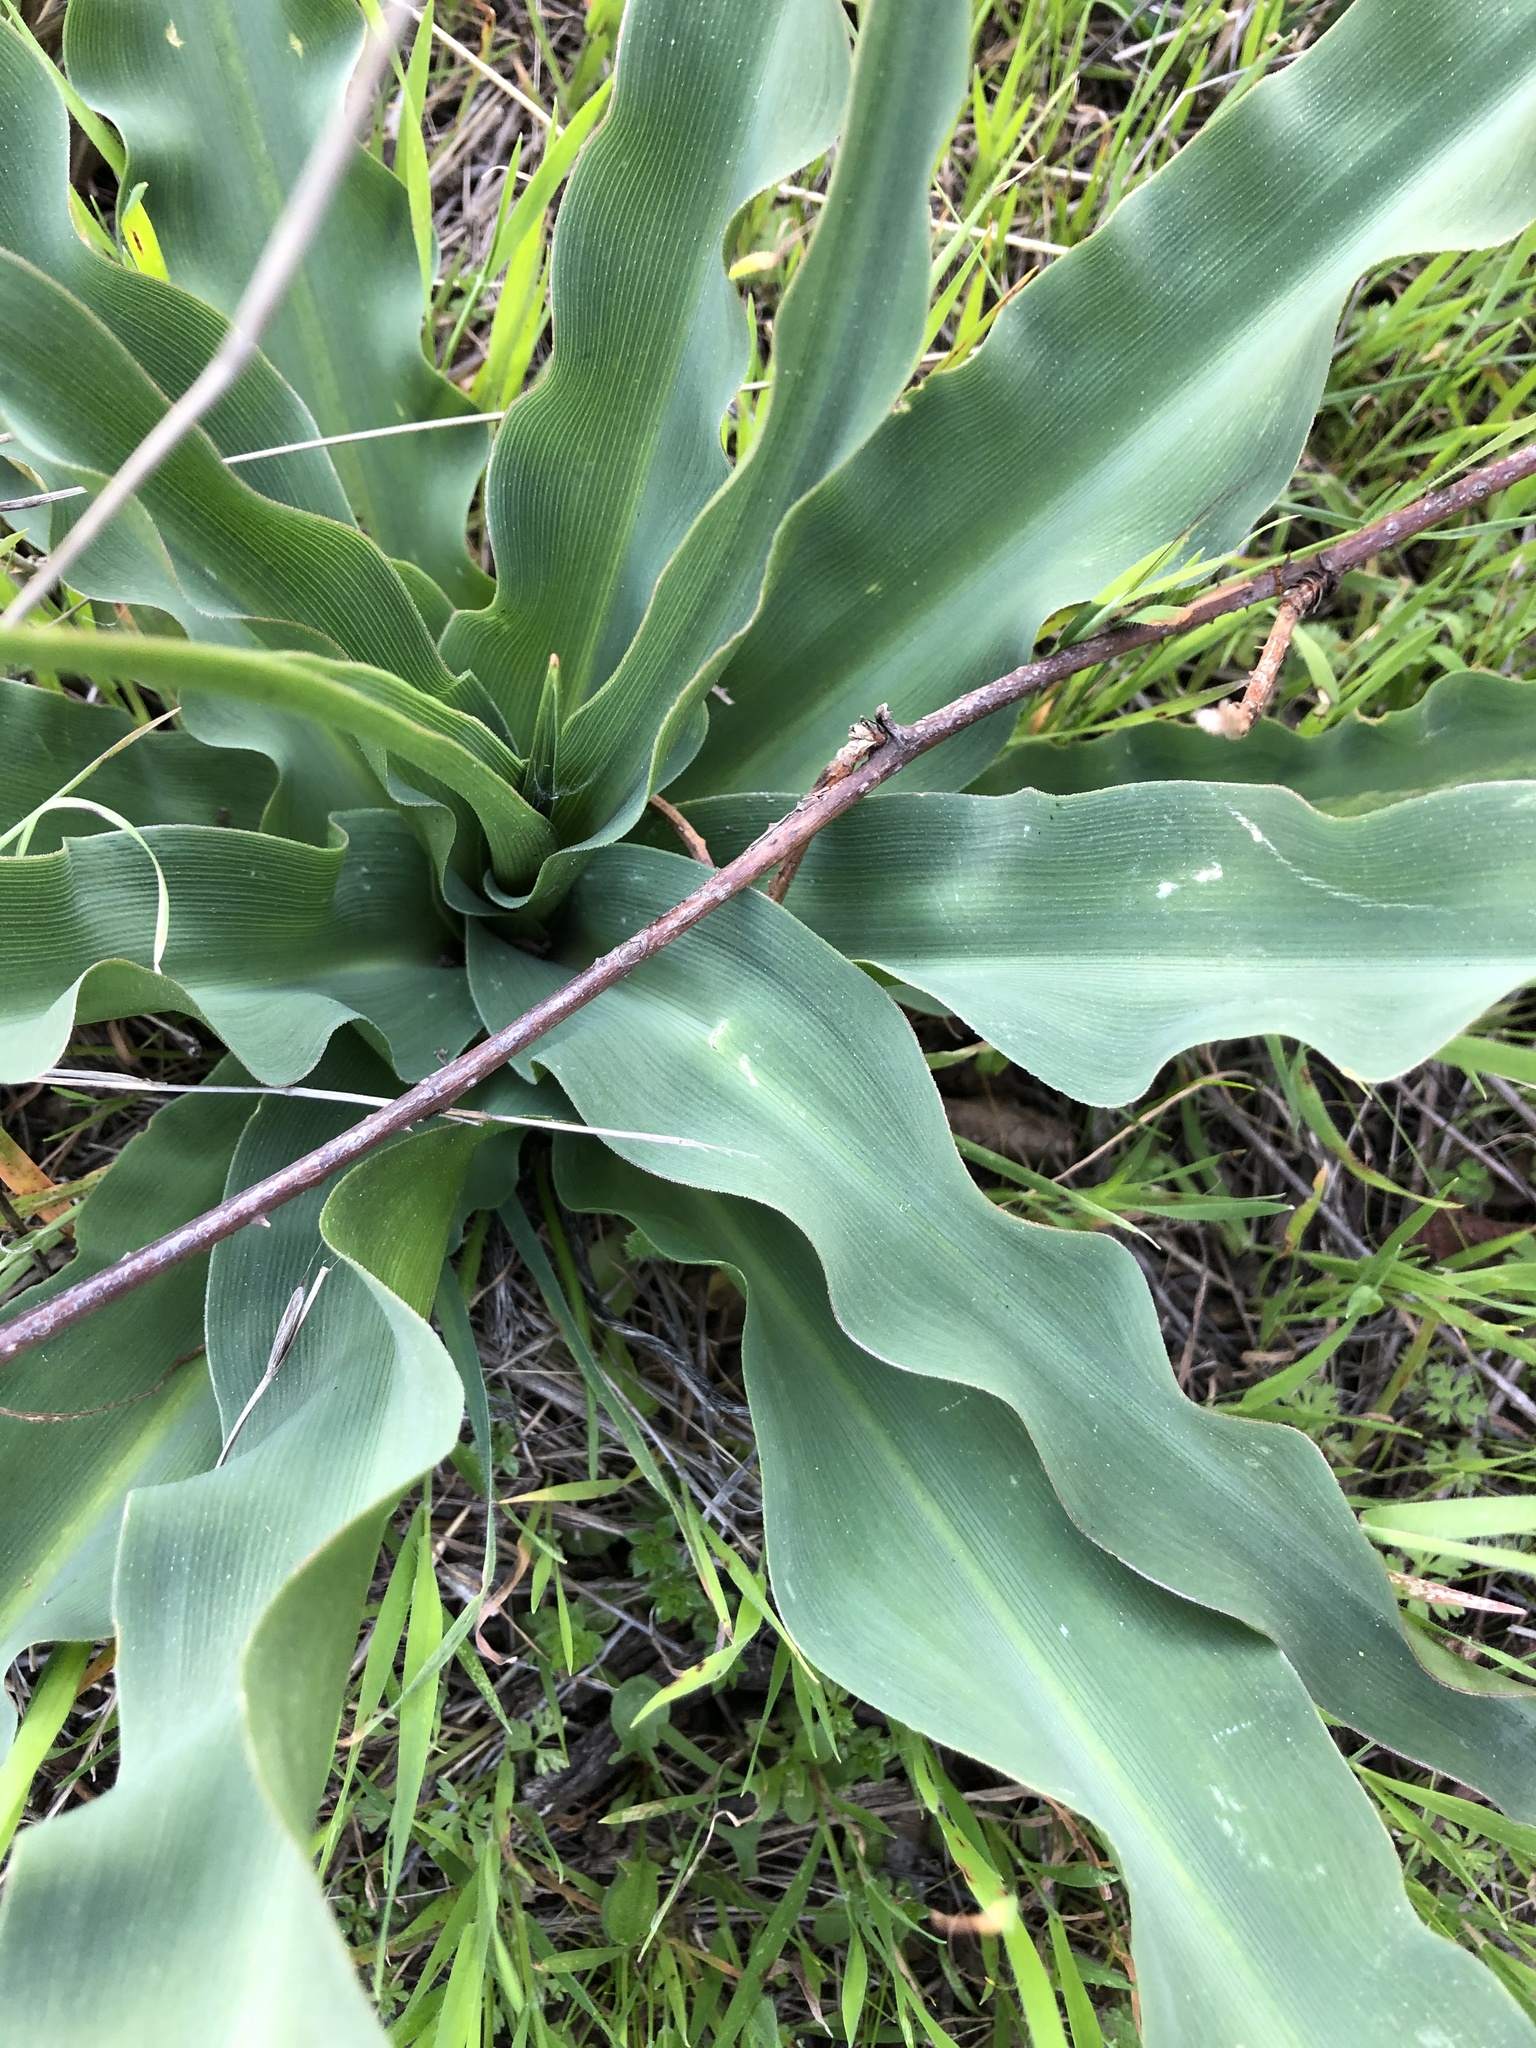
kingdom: Plantae
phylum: Tracheophyta
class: Liliopsida
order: Asparagales
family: Asparagaceae
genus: Chlorogalum
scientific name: Chlorogalum pomeridianum
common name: Amole
